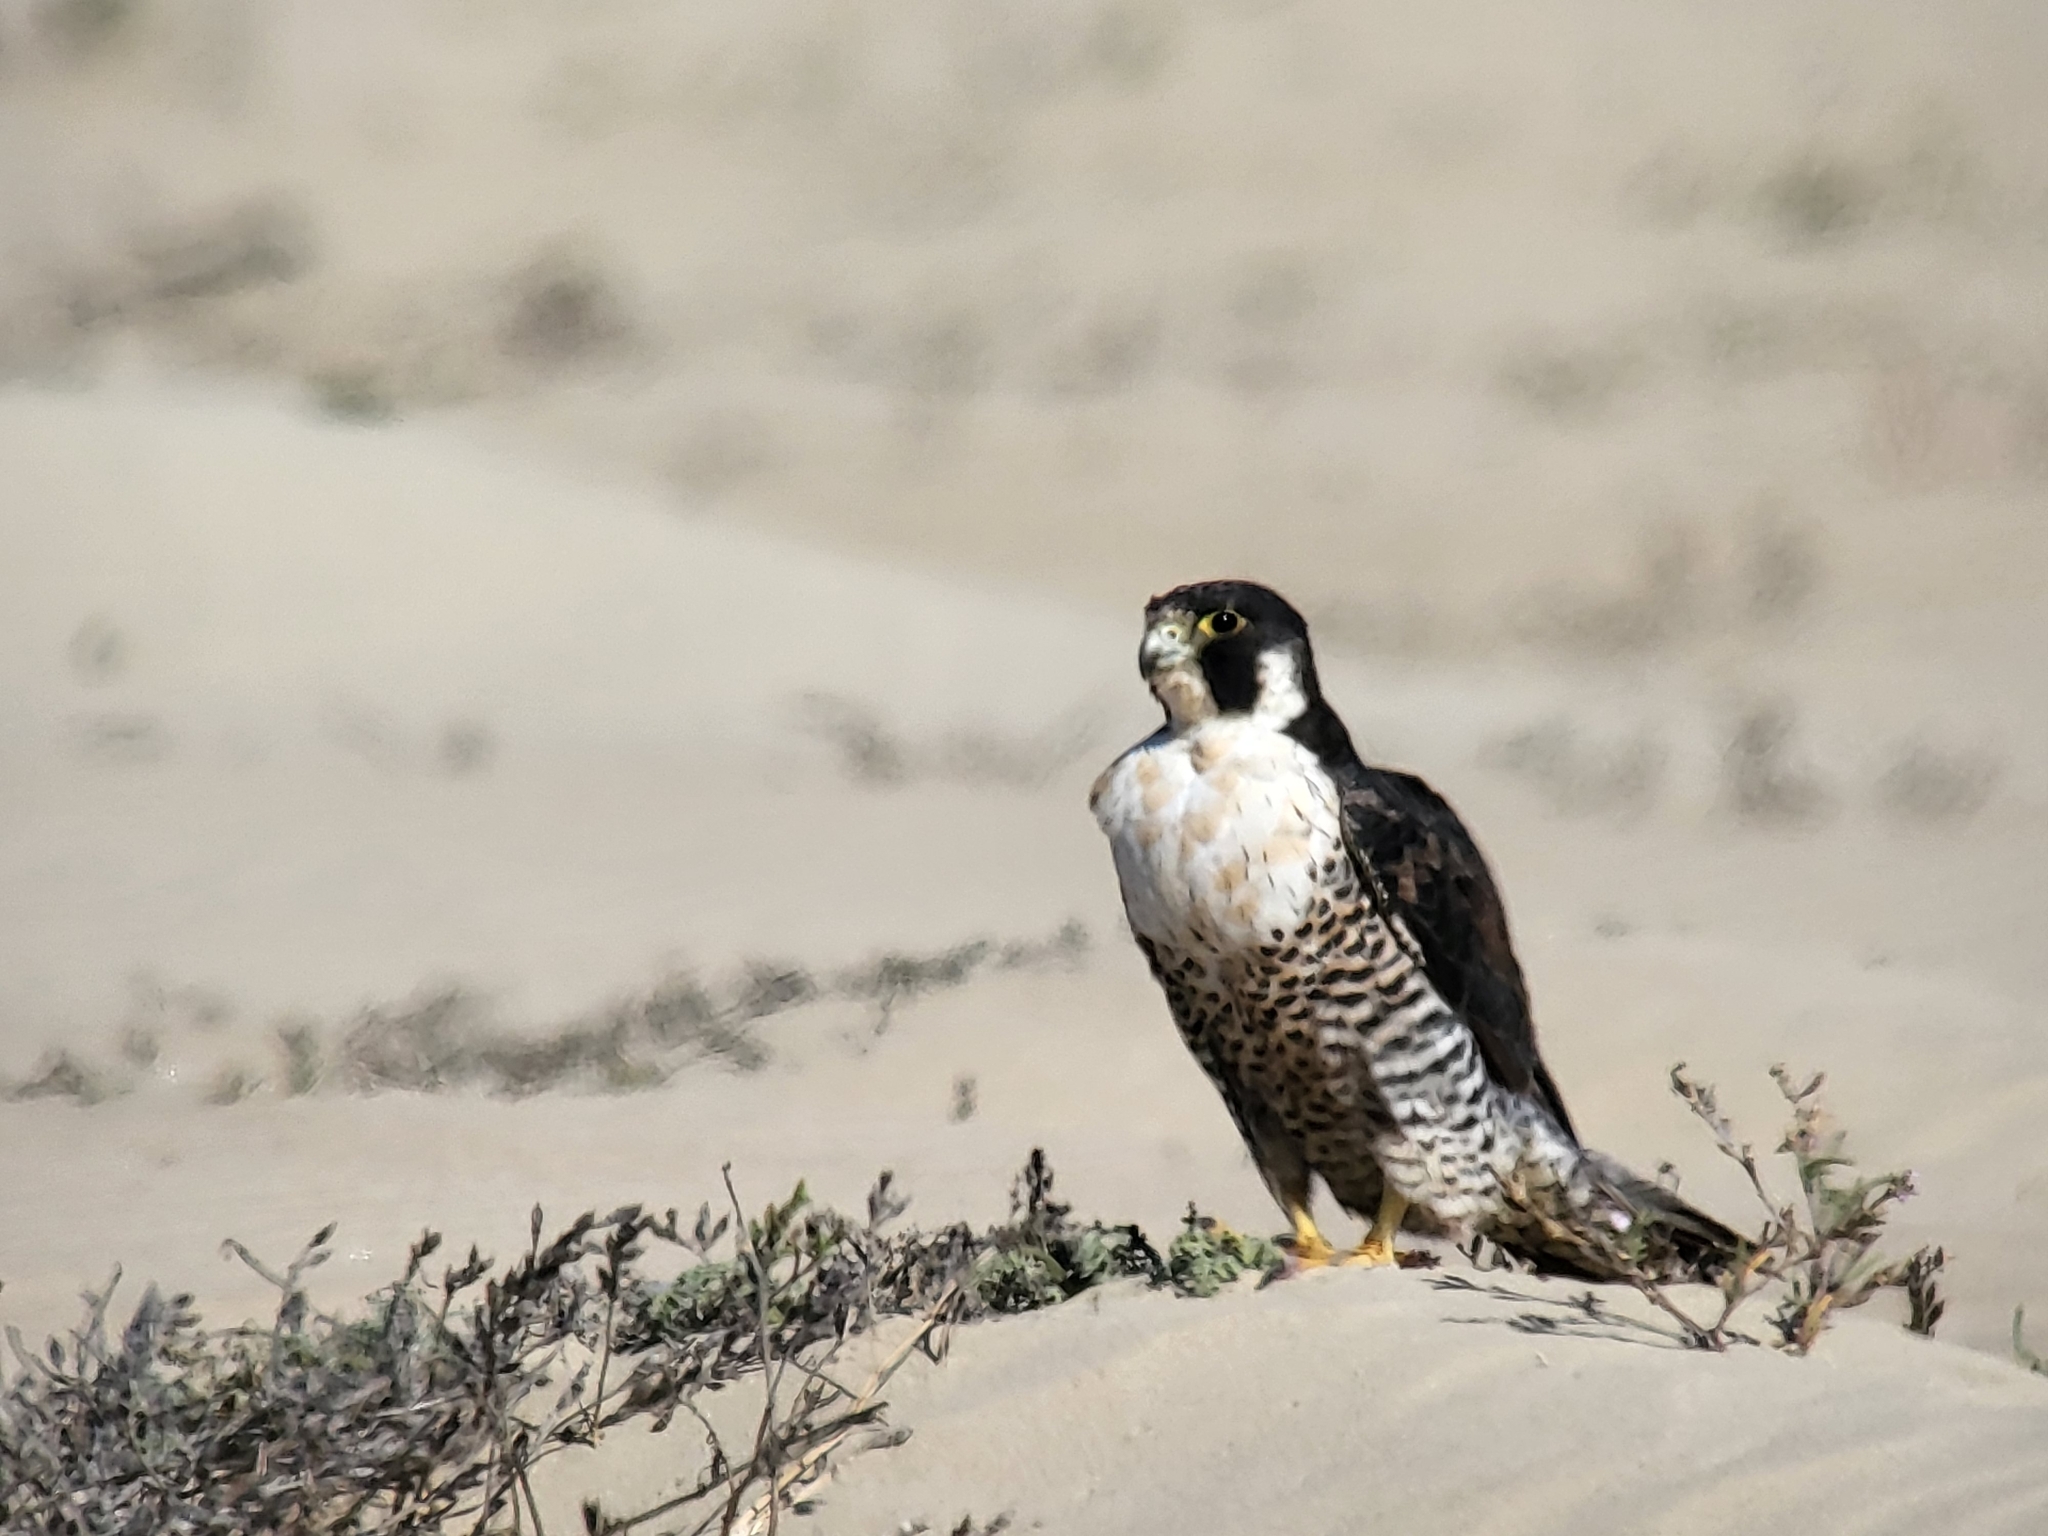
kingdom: Animalia
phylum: Chordata
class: Aves
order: Falconiformes
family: Falconidae
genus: Falco
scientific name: Falco peregrinus
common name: Peregrine falcon
